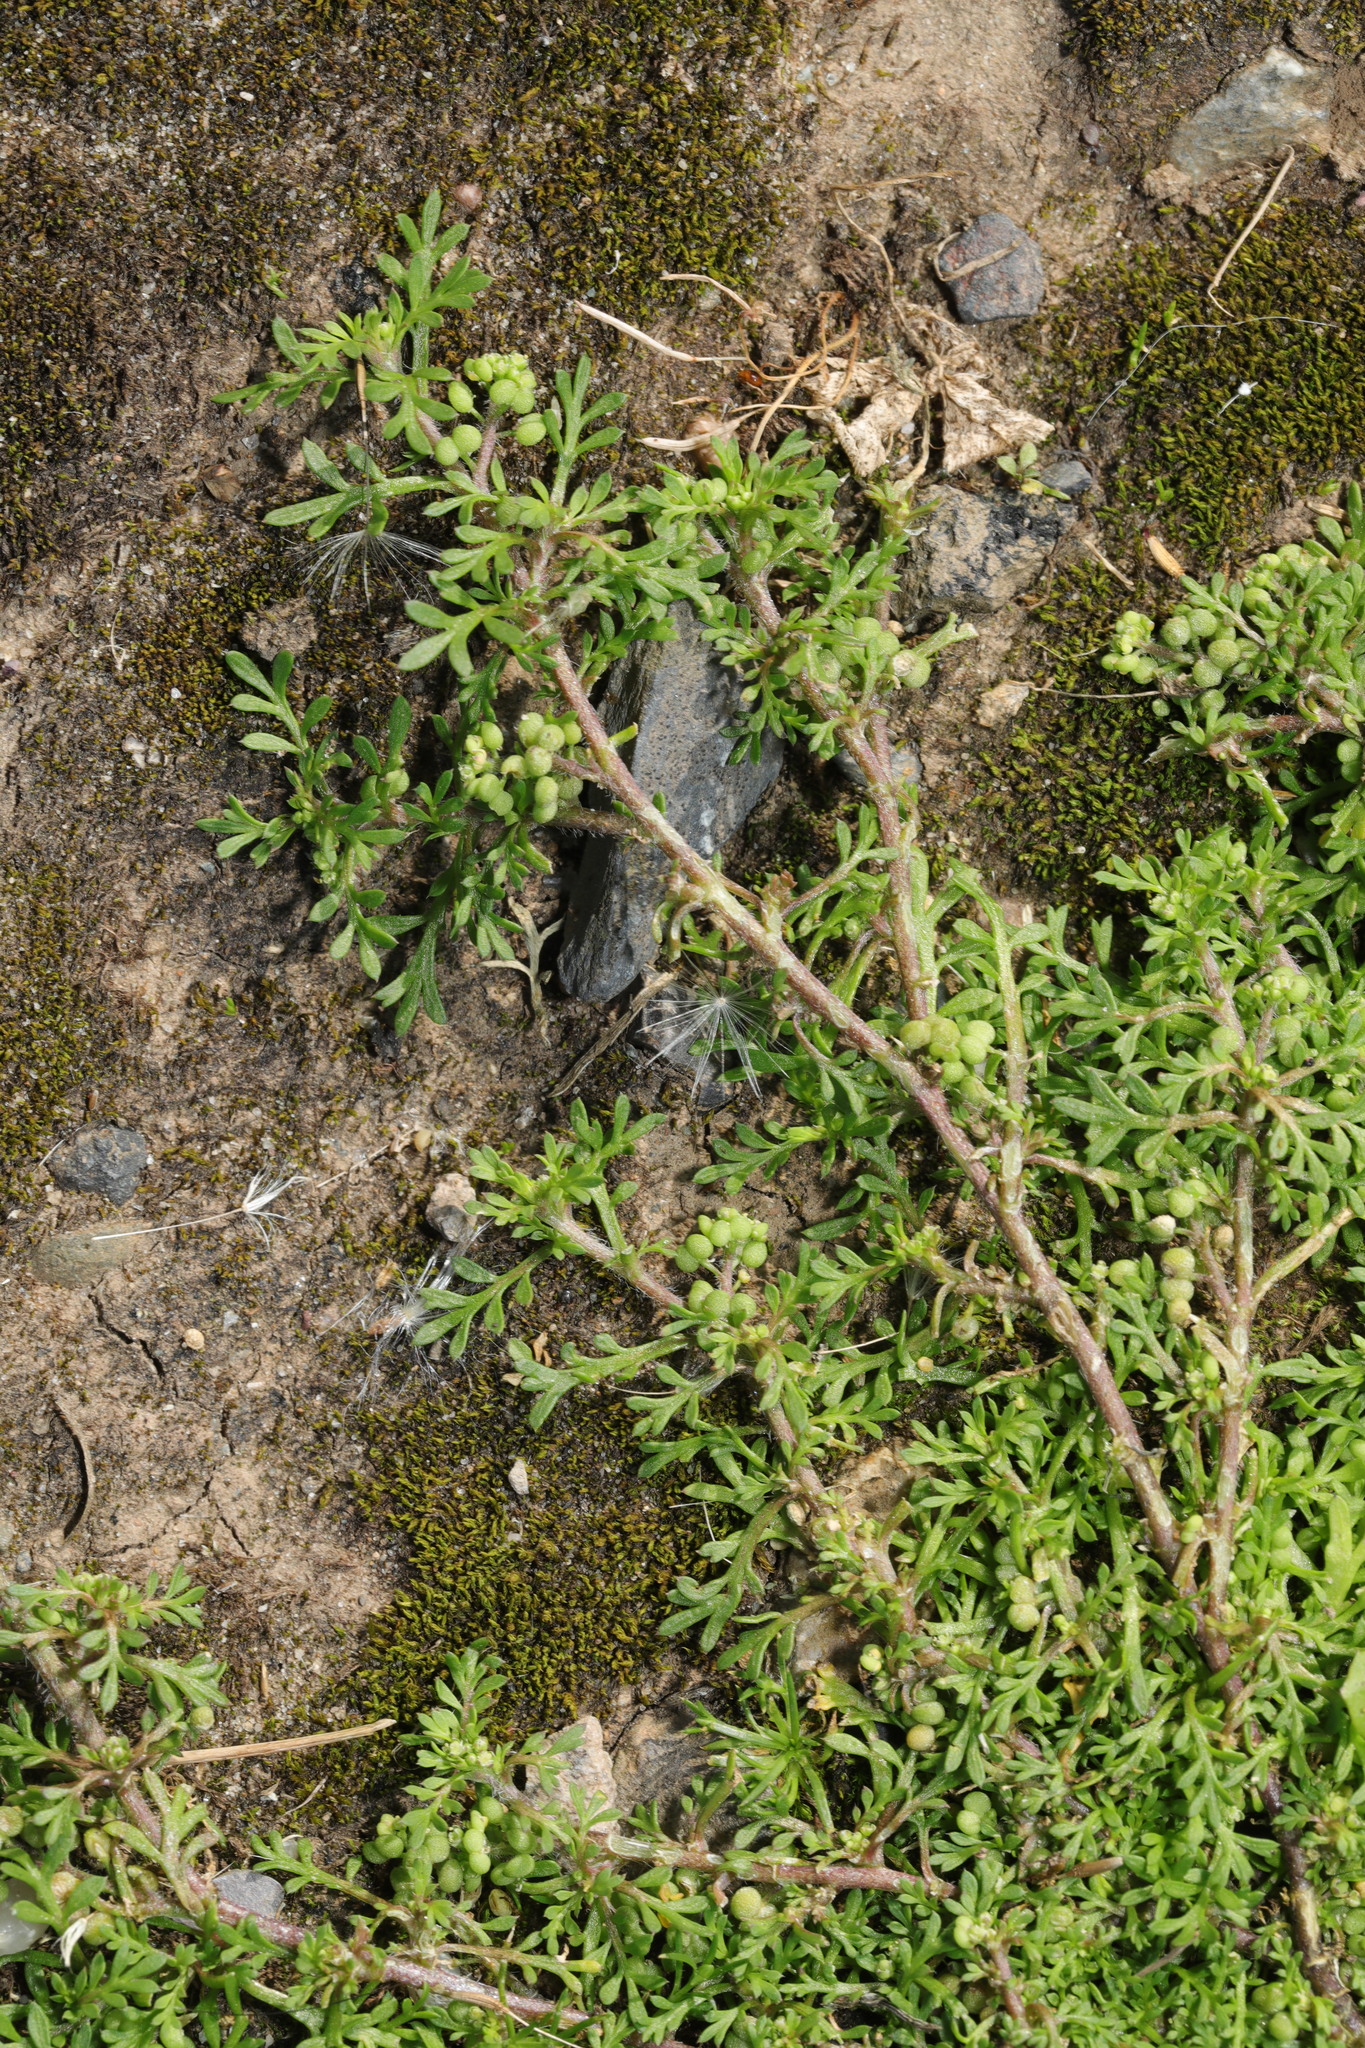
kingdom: Plantae
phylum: Tracheophyta
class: Magnoliopsida
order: Brassicales
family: Brassicaceae
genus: Lepidium
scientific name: Lepidium didymum
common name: Lesser swinecress
